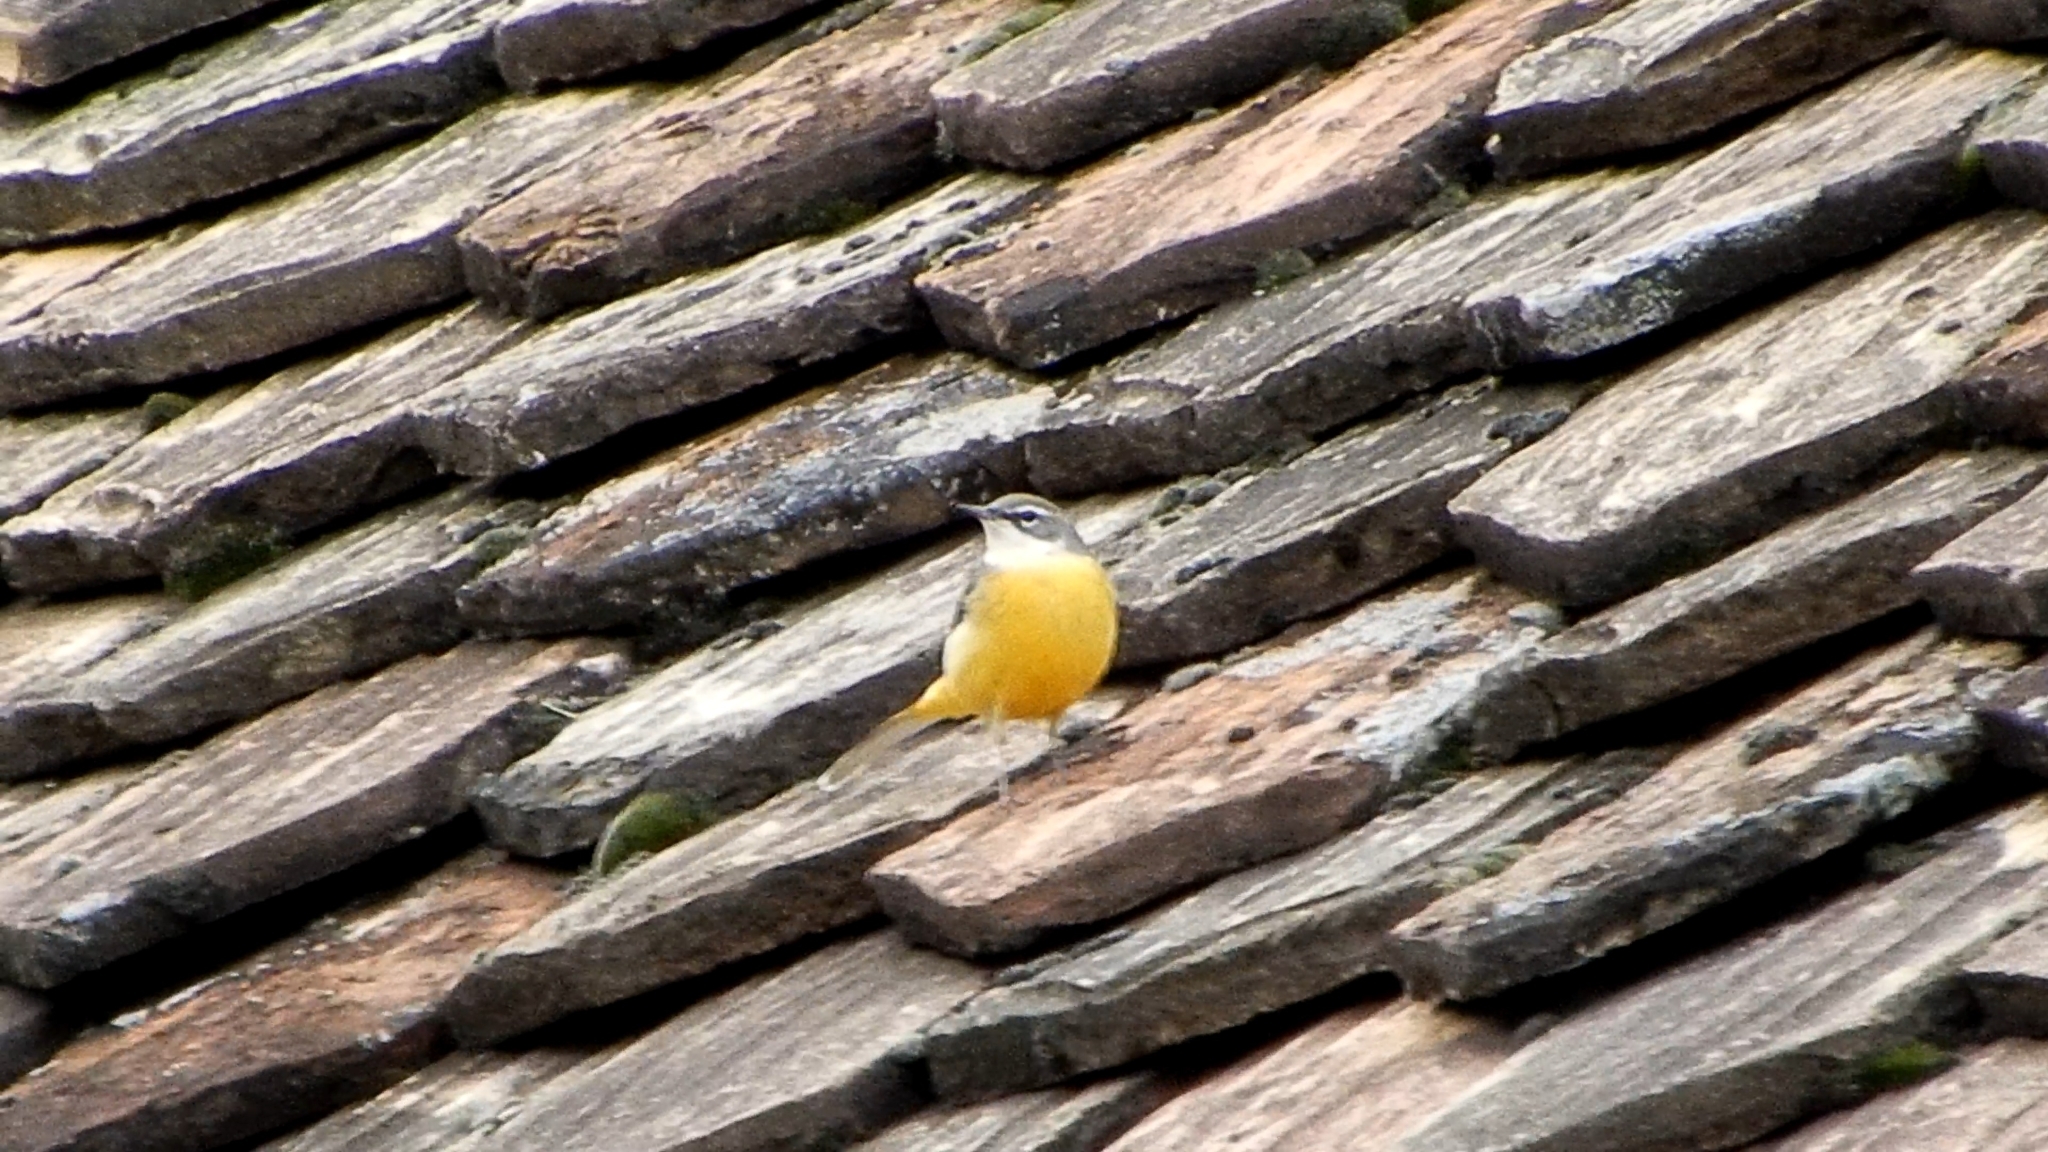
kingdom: Animalia
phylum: Chordata
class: Aves
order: Passeriformes
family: Motacillidae
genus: Motacilla
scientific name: Motacilla cinerea
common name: Grey wagtail
